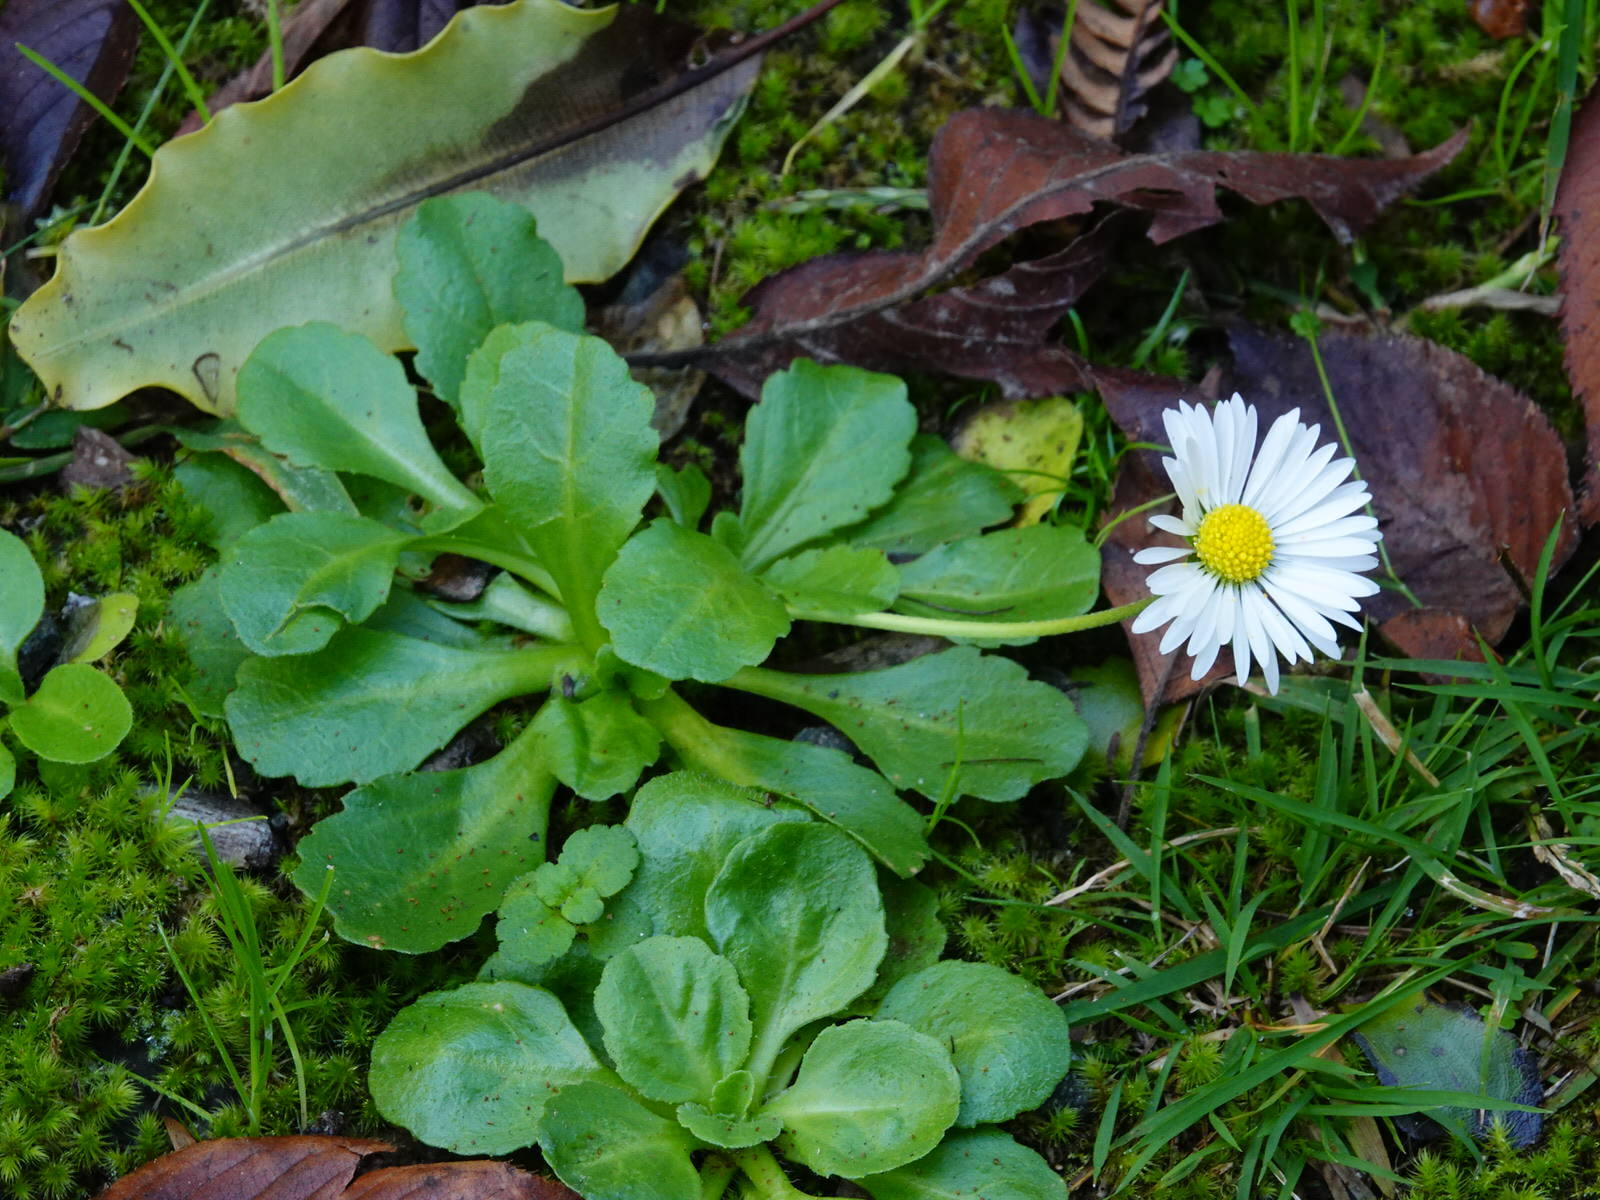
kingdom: Plantae
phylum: Tracheophyta
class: Magnoliopsida
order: Asterales
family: Asteraceae
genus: Bellis
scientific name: Bellis perennis
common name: Lawndaisy
